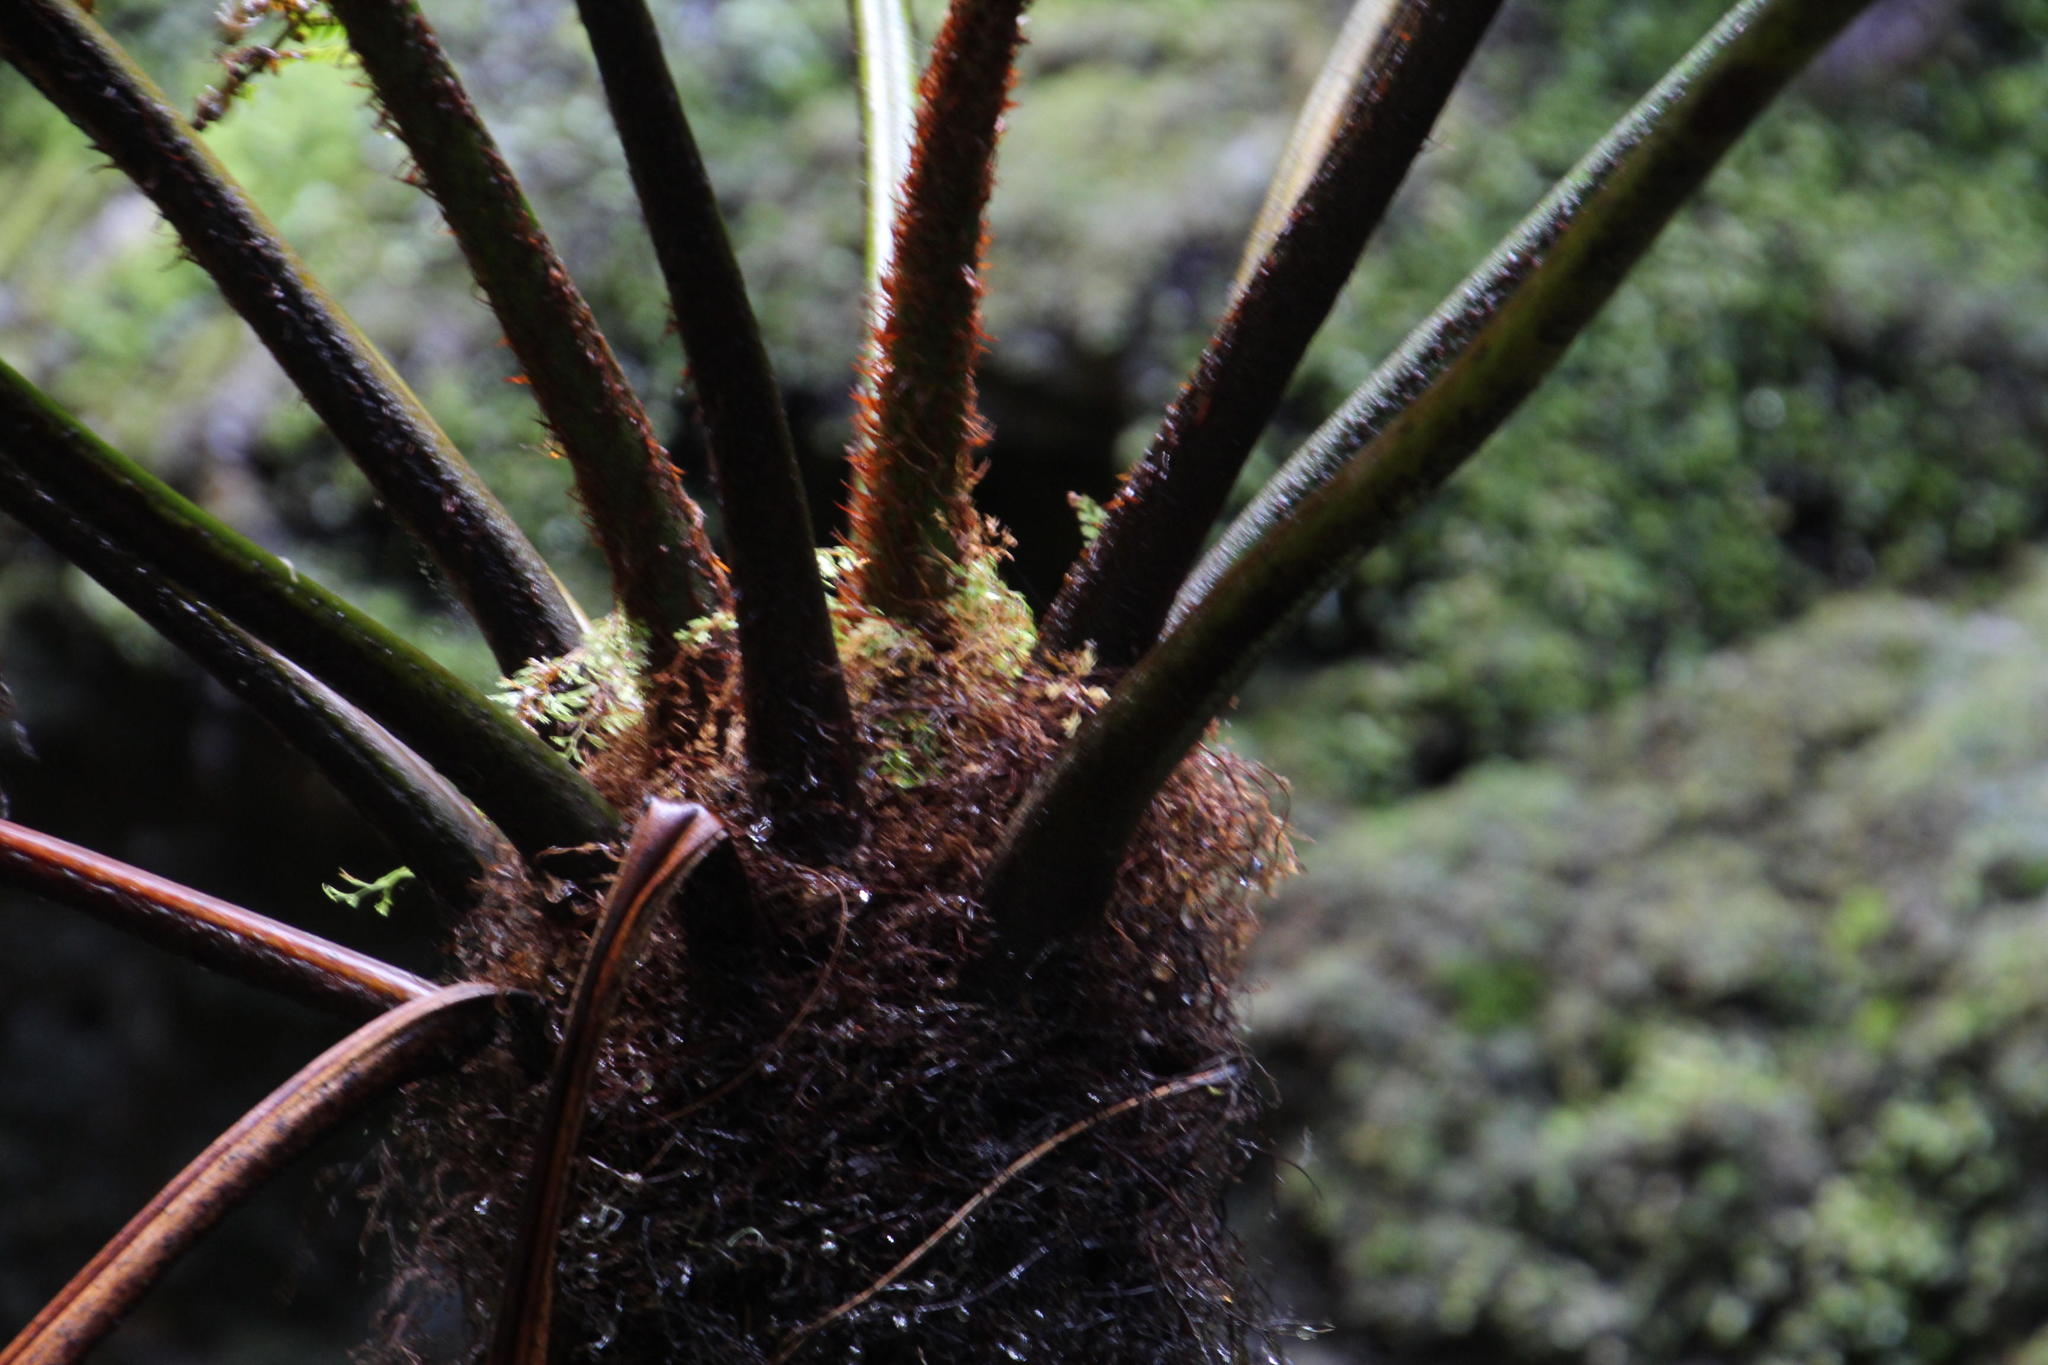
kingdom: Plantae
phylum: Tracheophyta
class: Polypodiopsida
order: Cyatheales
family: Cyatheaceae
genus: Gymnosphaera
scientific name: Gymnosphaera capensis
